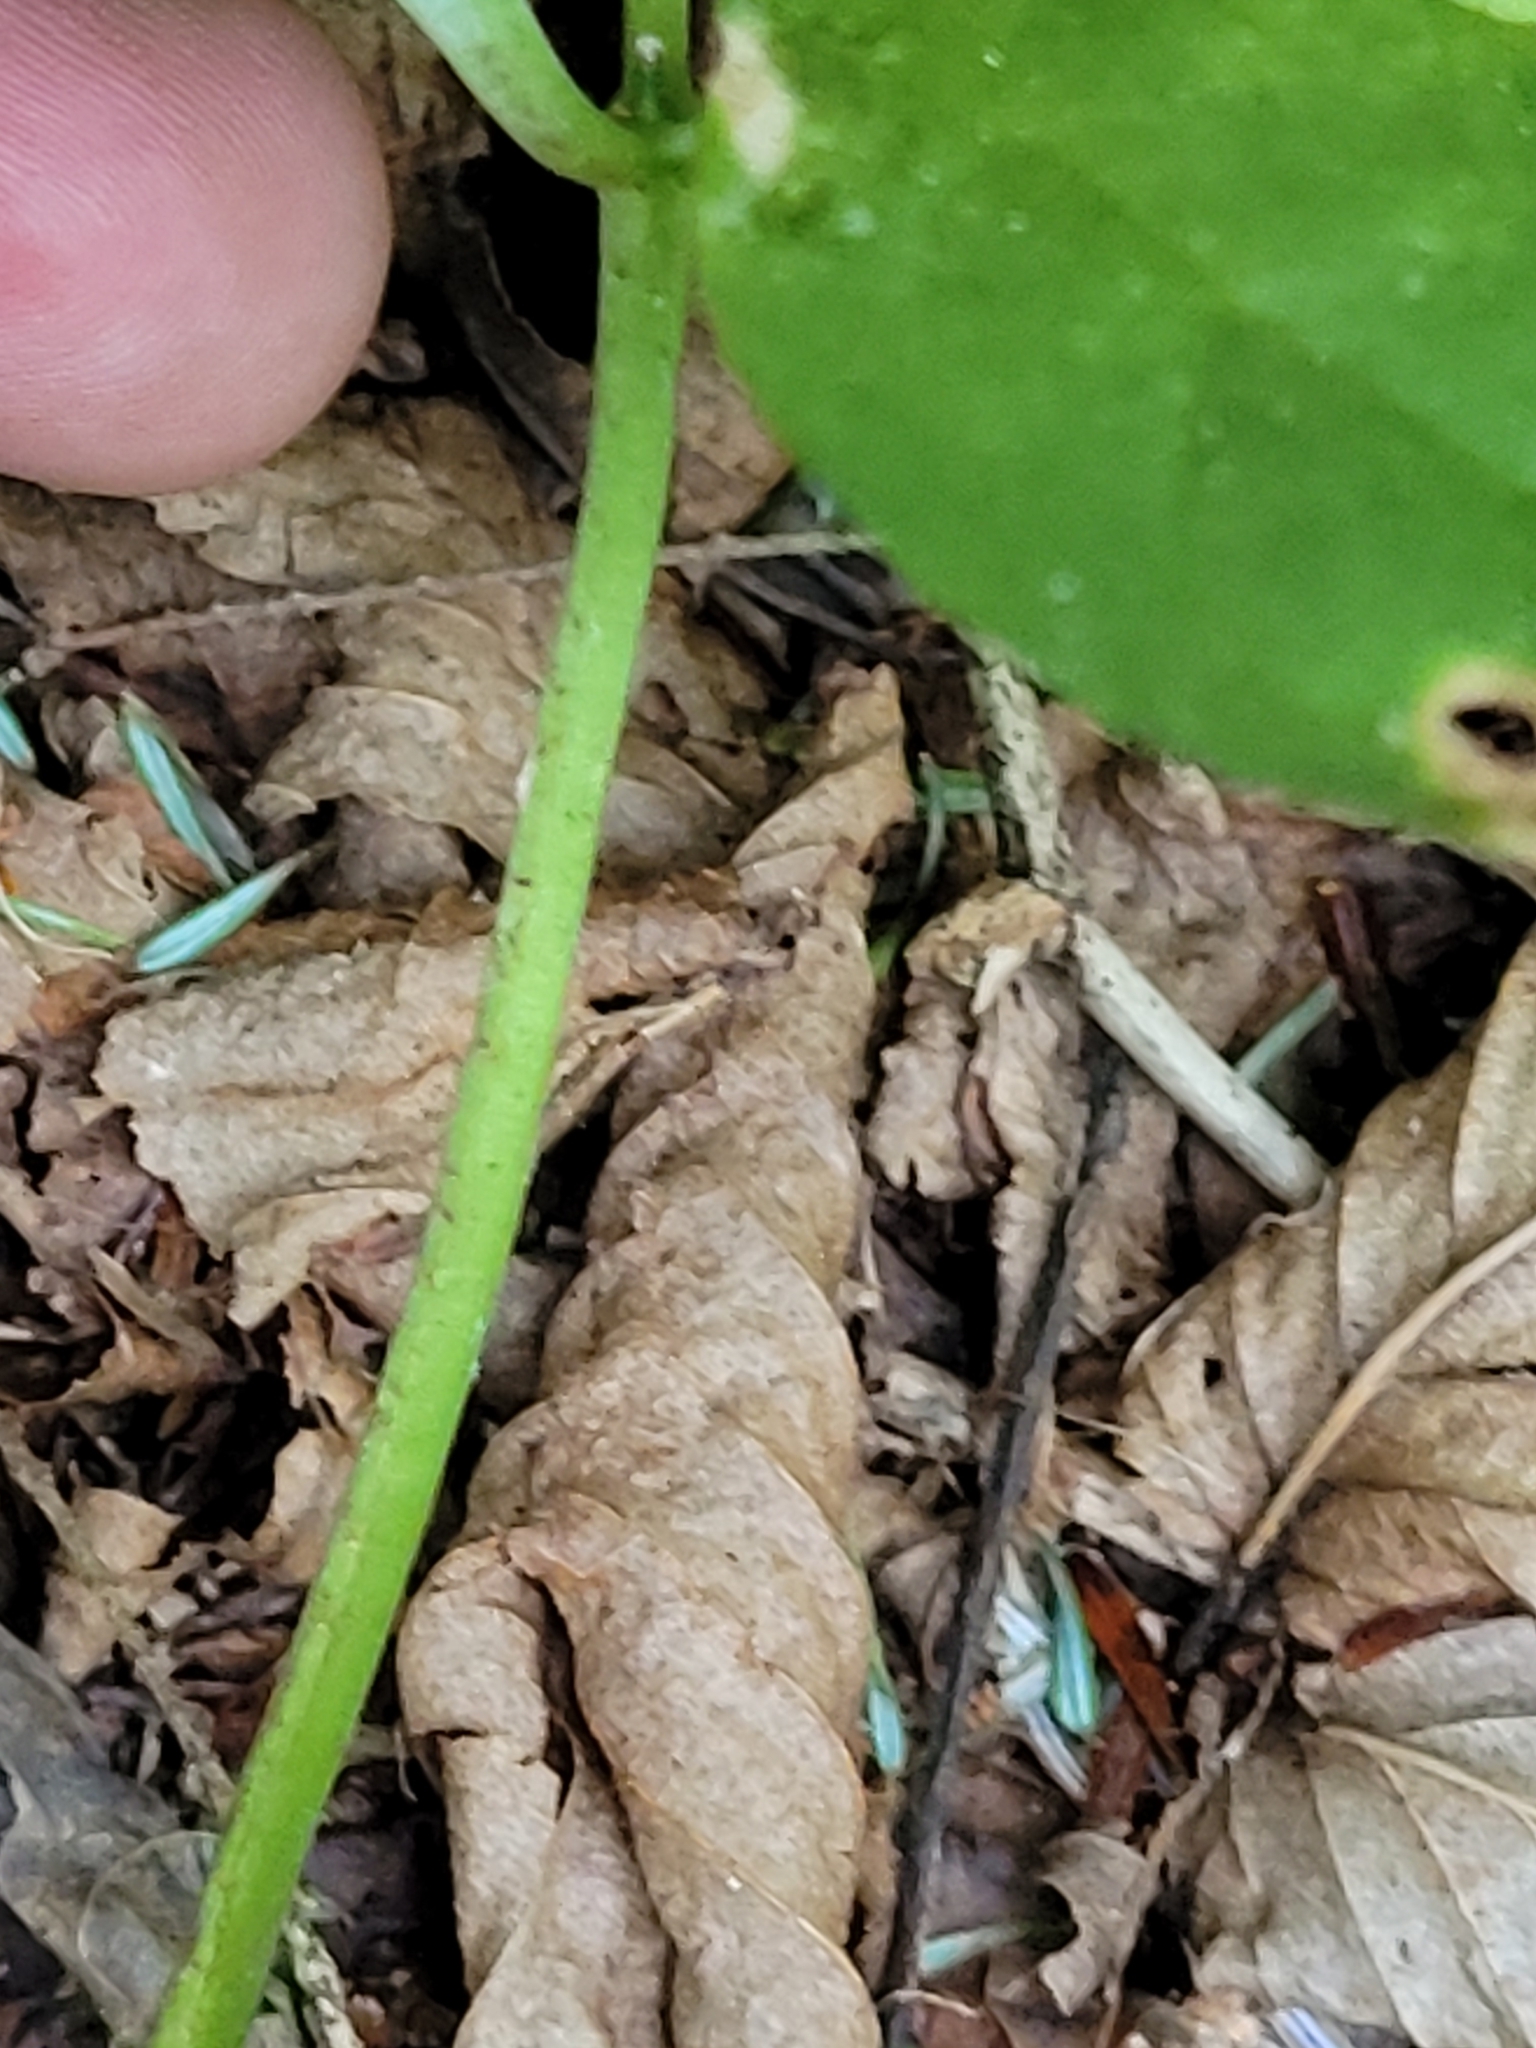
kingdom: Plantae
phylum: Tracheophyta
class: Liliopsida
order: Liliales
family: Melanthiaceae
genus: Trillium
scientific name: Trillium undulatum
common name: Paint trillium
